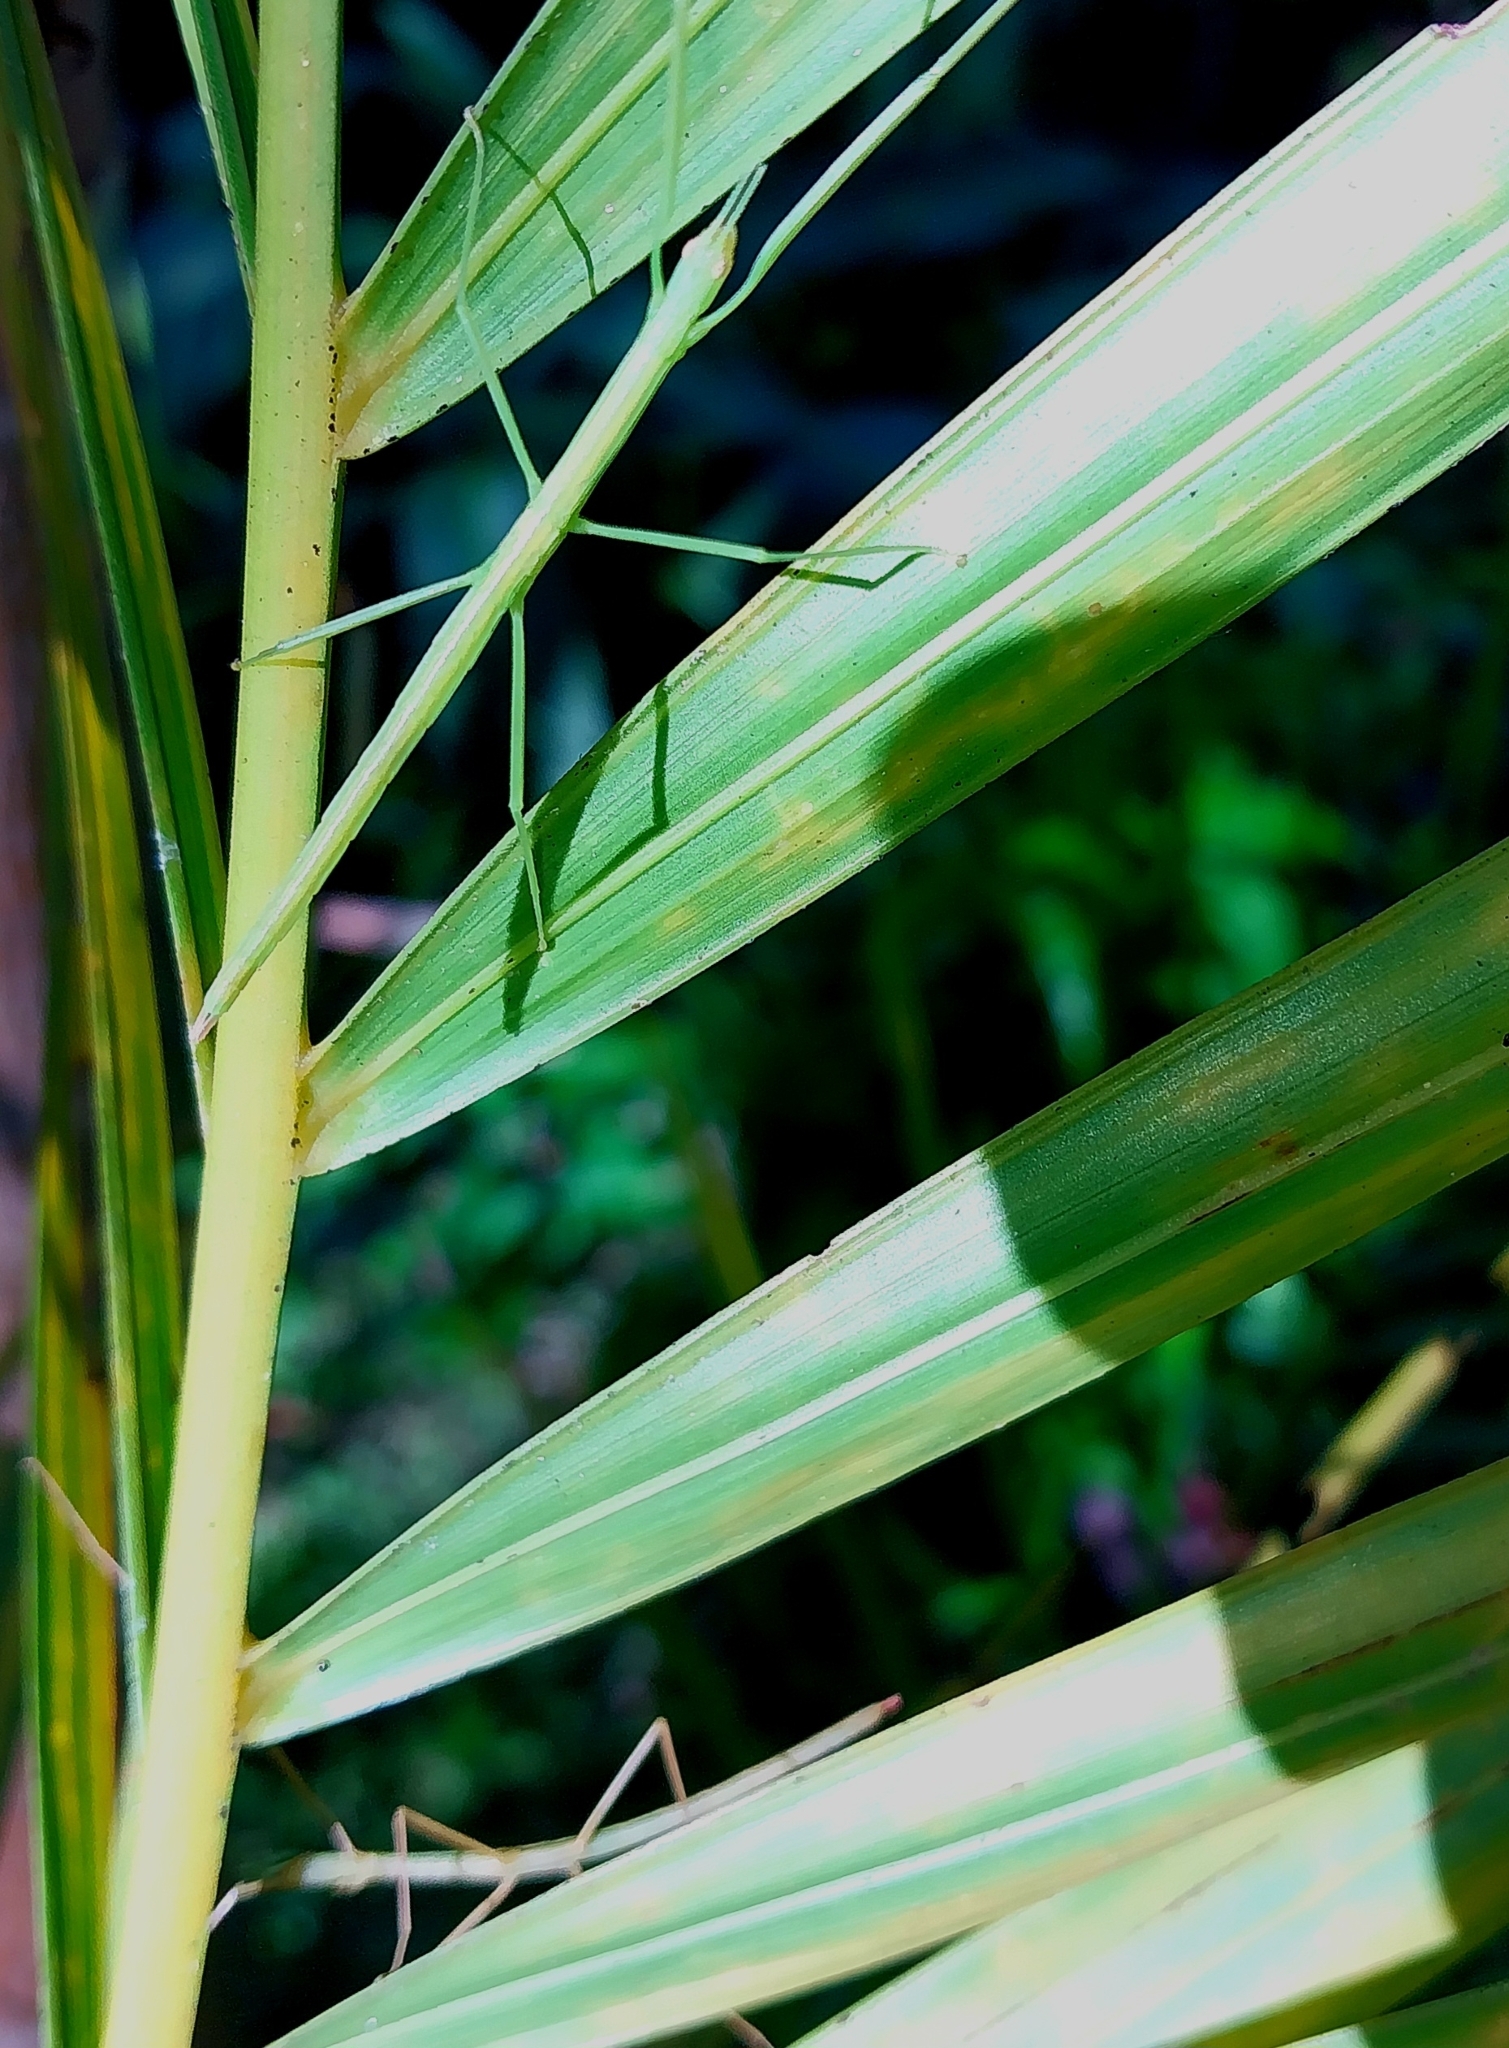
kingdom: Animalia
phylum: Arthropoda
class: Insecta
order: Phasmida
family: Phasmatidae
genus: Graeffea
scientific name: Graeffea crouanii
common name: Coconut stick insect
